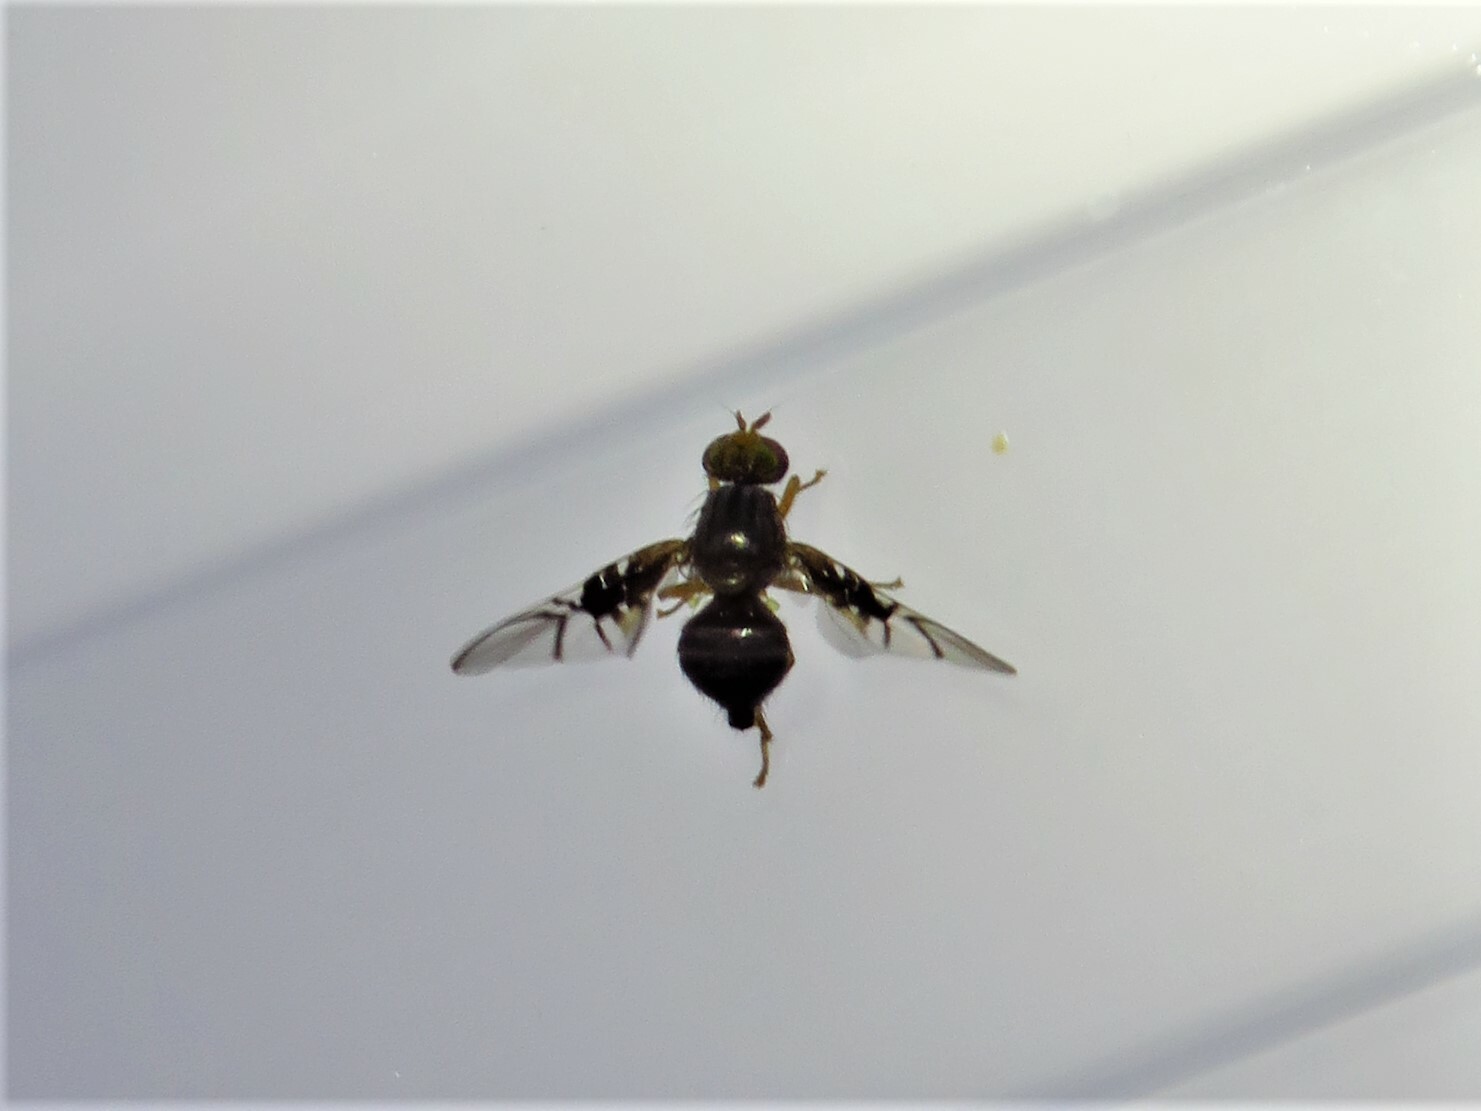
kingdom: Animalia
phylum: Arthropoda
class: Insecta
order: Diptera
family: Tephritidae
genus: Anomoia
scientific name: Anomoia purmunda
